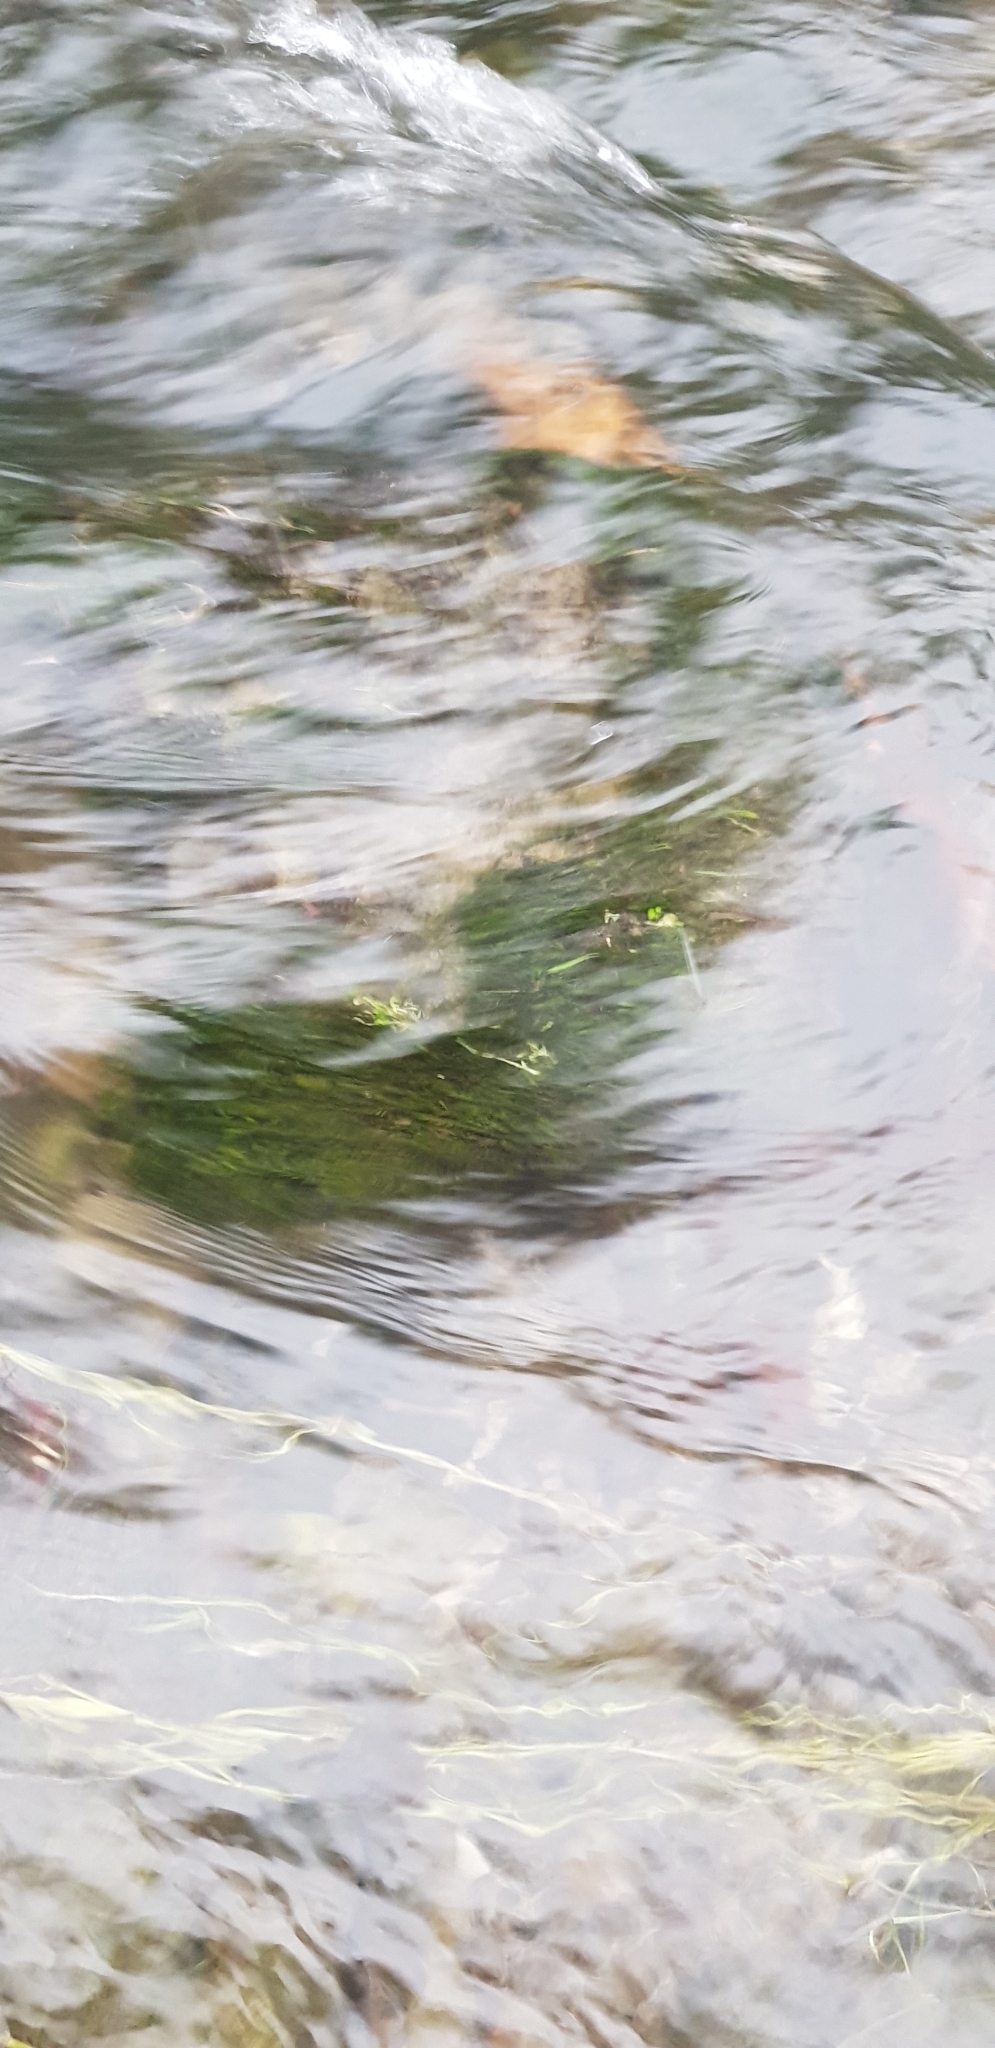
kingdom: Plantae
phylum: Bryophyta
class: Bryopsida
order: Hypnales
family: Fontinalaceae
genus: Fontinalis
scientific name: Fontinalis antipyretica
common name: Greater water-moss
